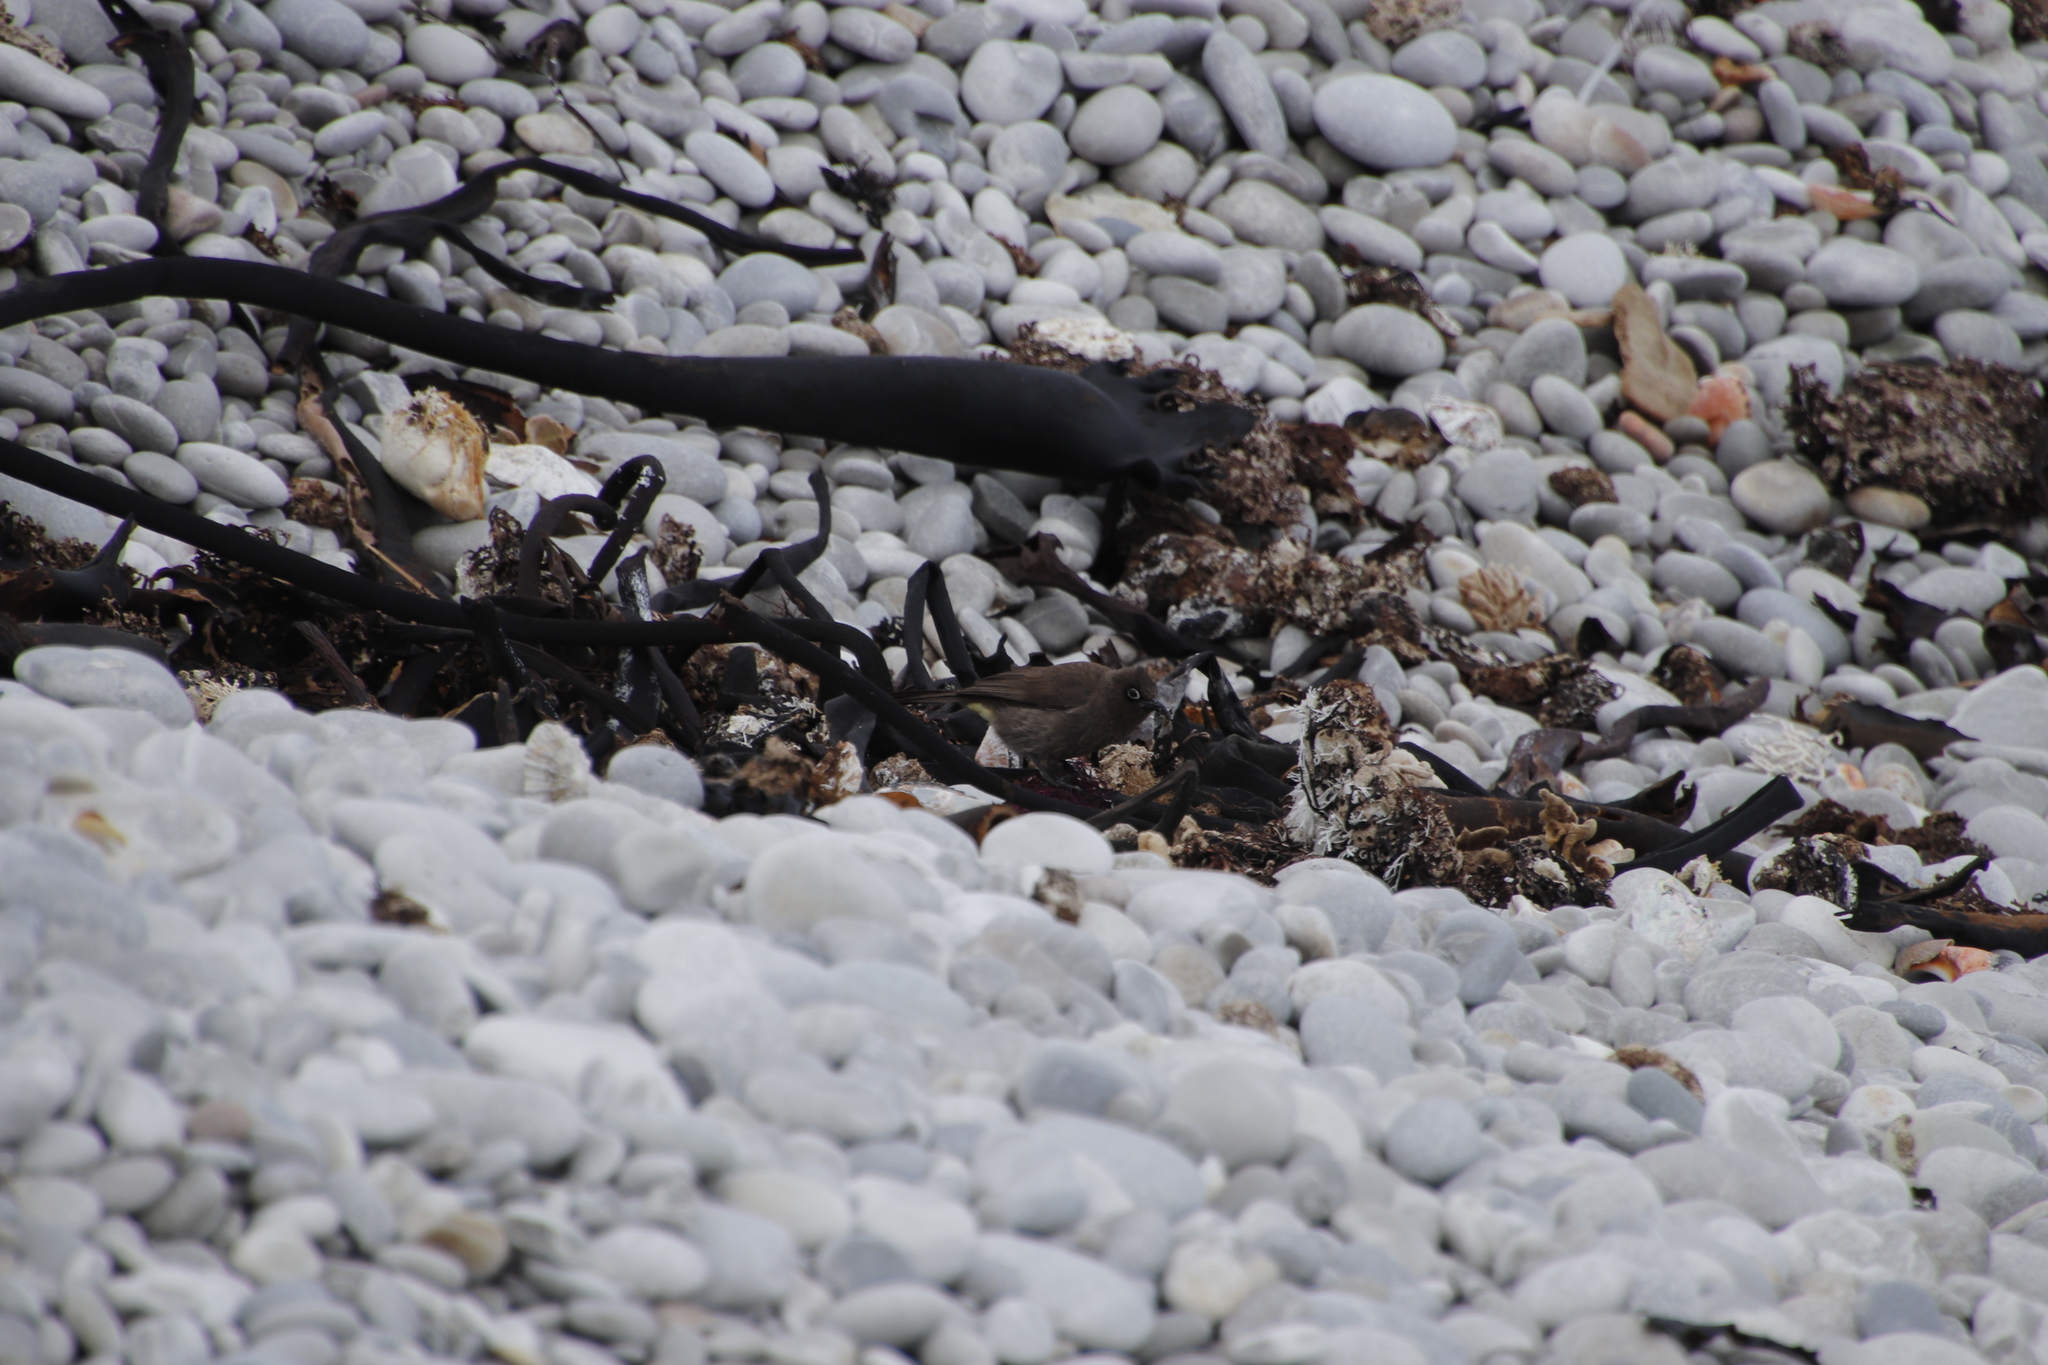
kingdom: Animalia
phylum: Chordata
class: Aves
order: Passeriformes
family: Pycnonotidae
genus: Pycnonotus
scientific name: Pycnonotus capensis
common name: Cape bulbul
